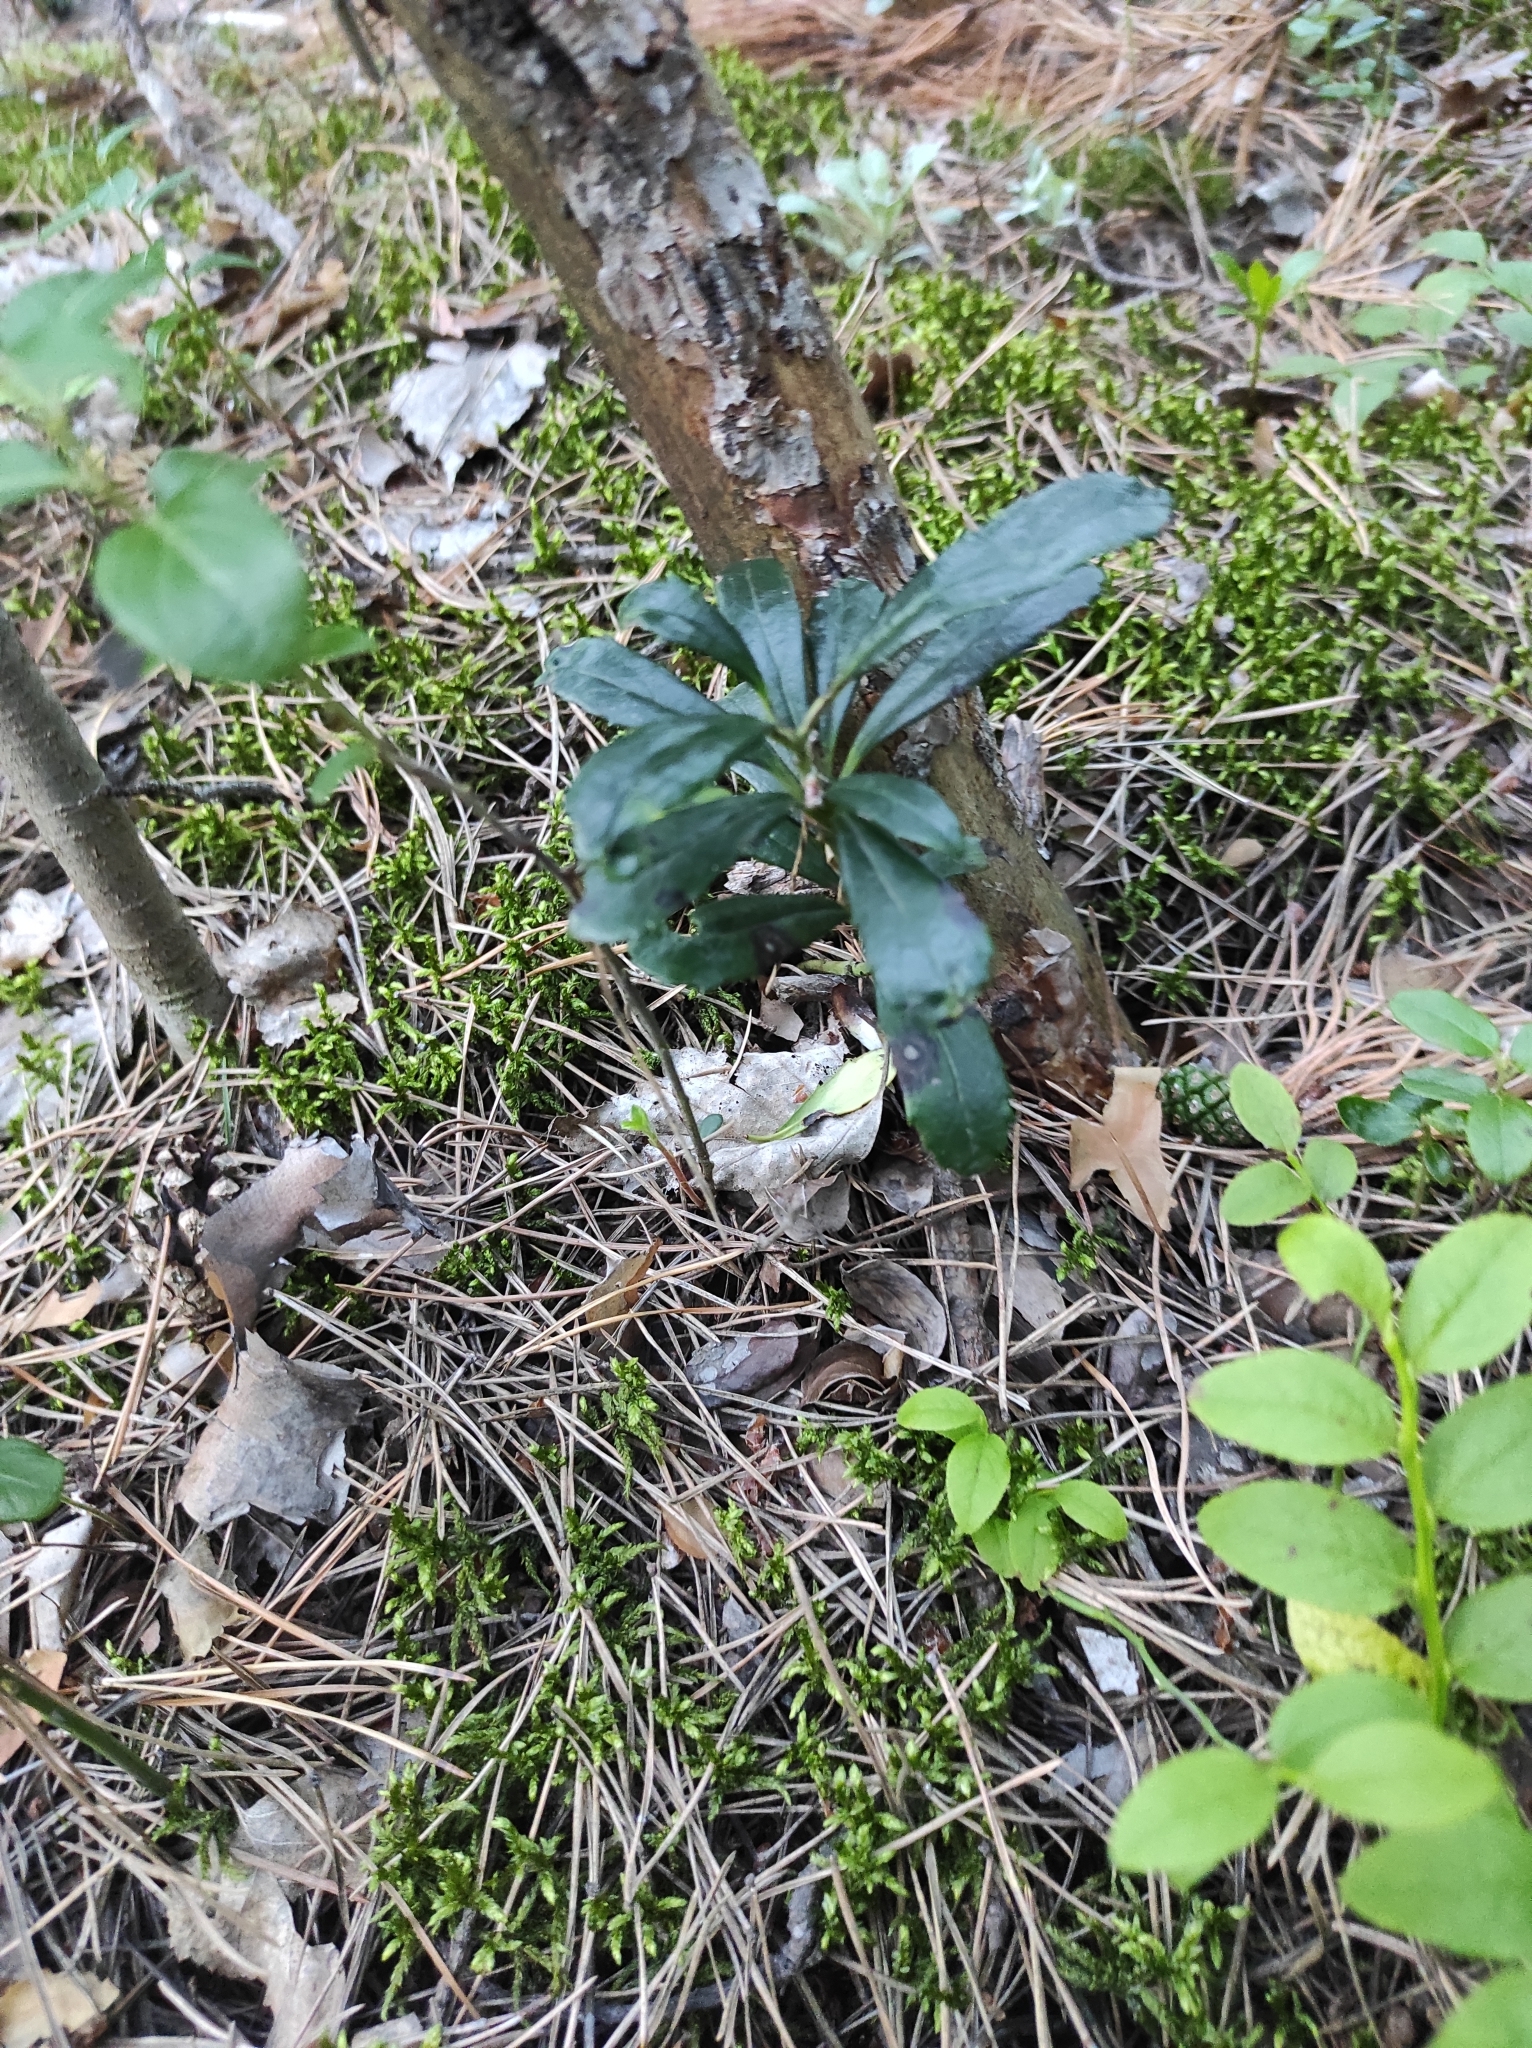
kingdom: Plantae
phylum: Tracheophyta
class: Magnoliopsida
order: Ericales
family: Ericaceae
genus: Chimaphila
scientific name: Chimaphila umbellata
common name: Pipsissewa
